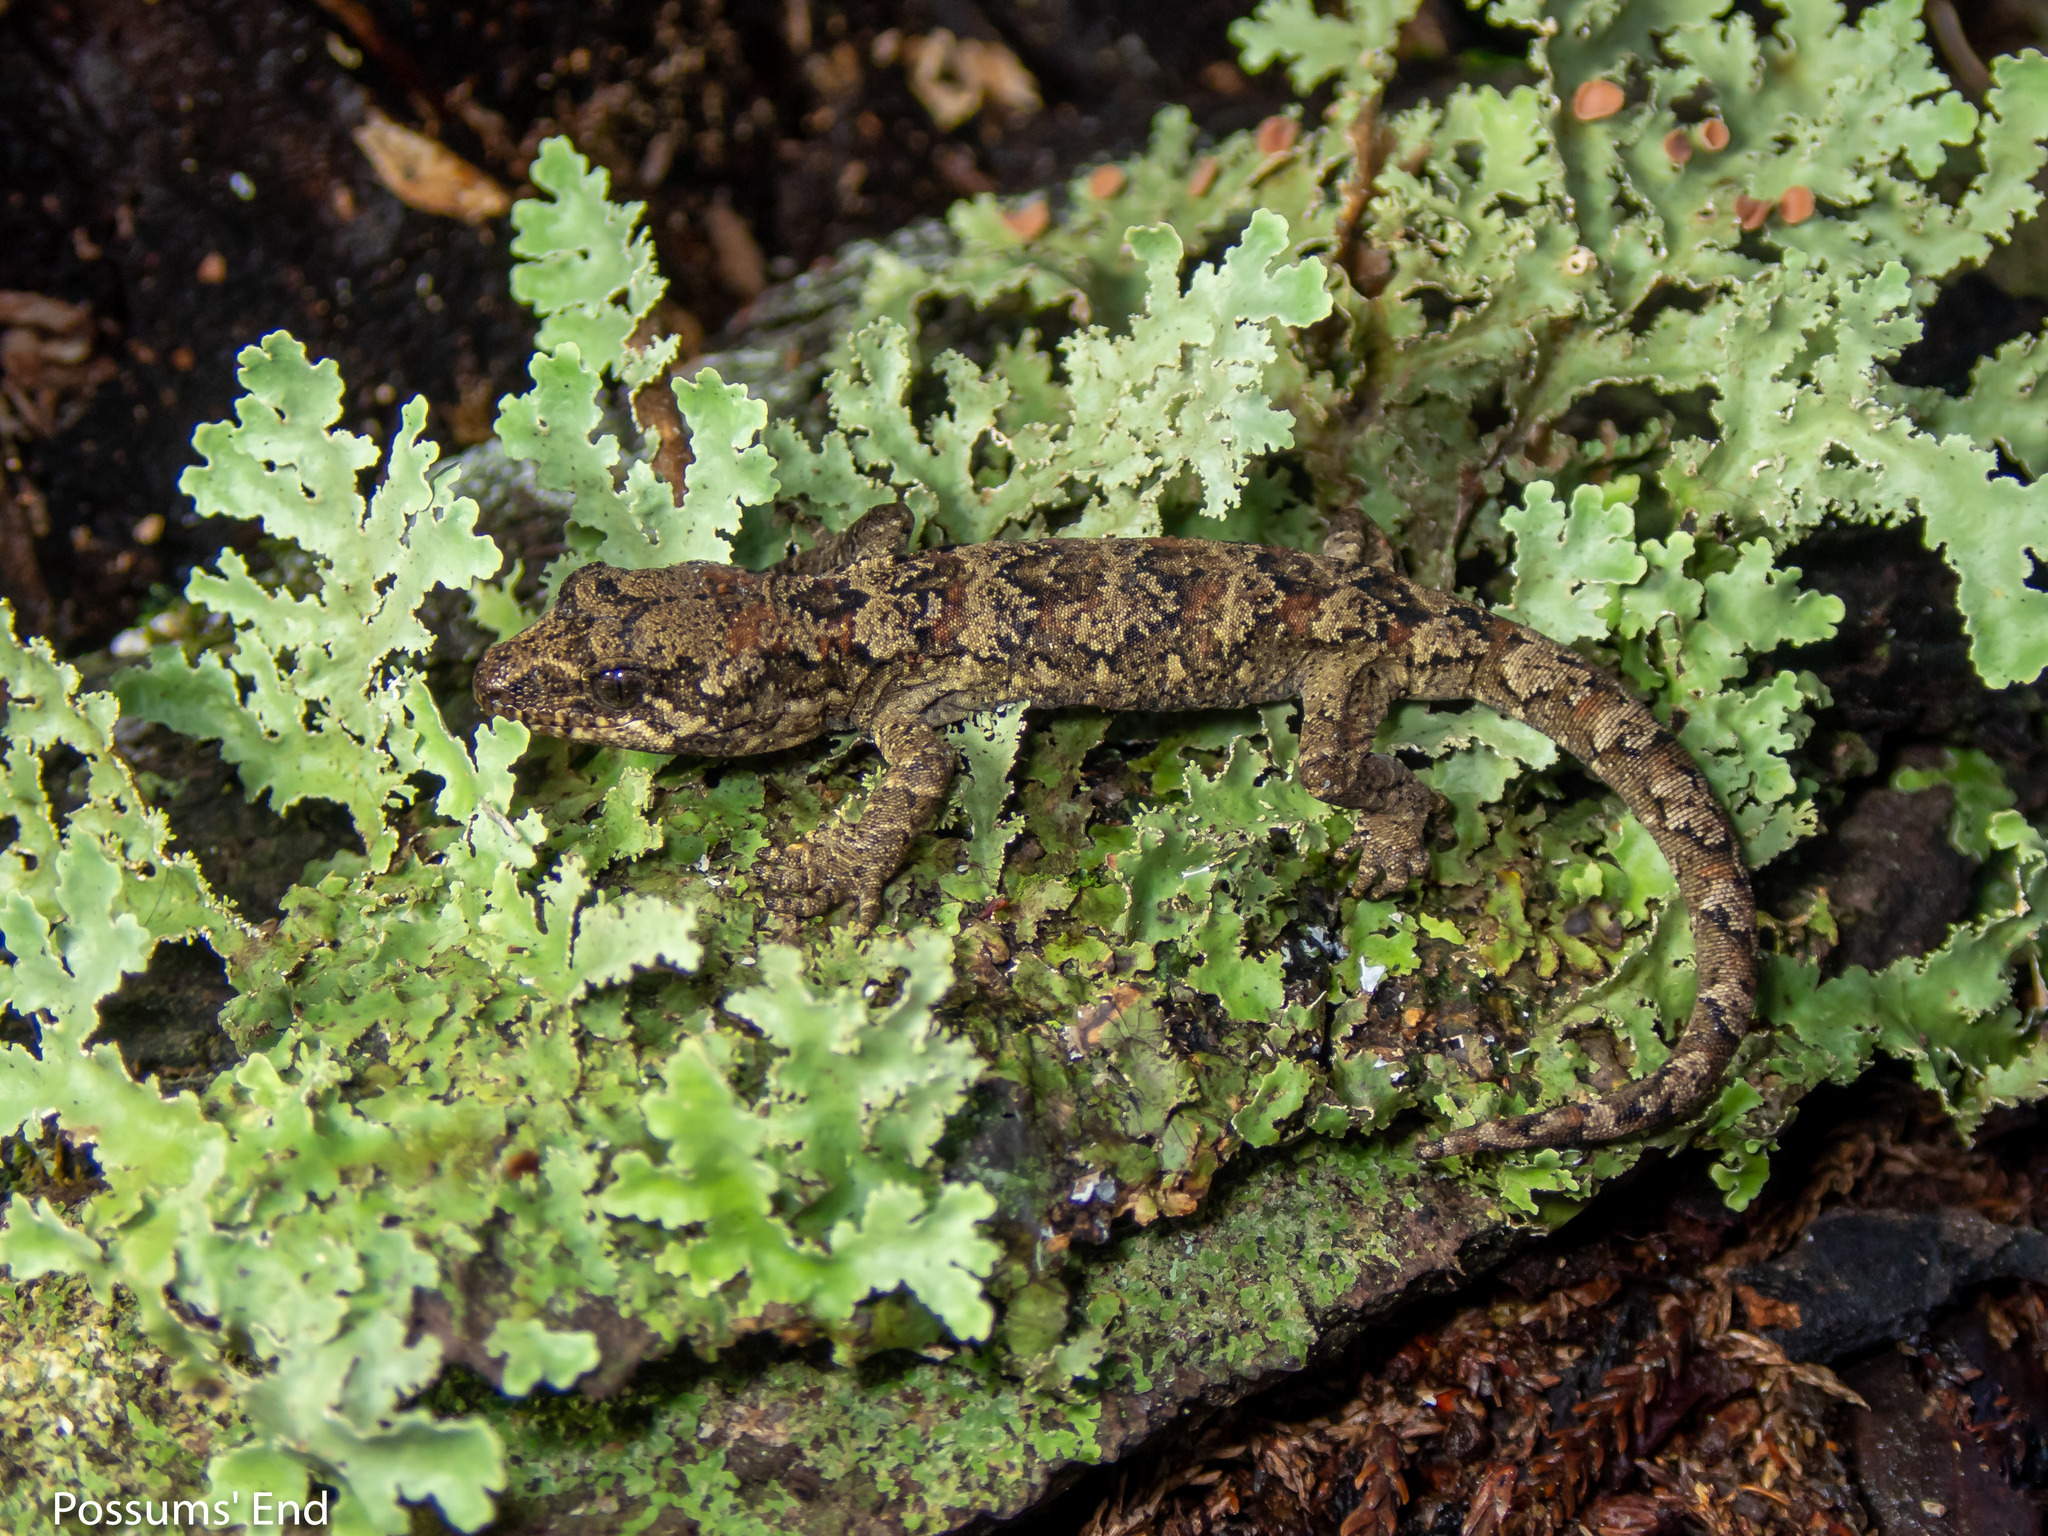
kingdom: Animalia
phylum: Chordata
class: Squamata
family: Diplodactylidae
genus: Mokopirirakau
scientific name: Mokopirirakau
